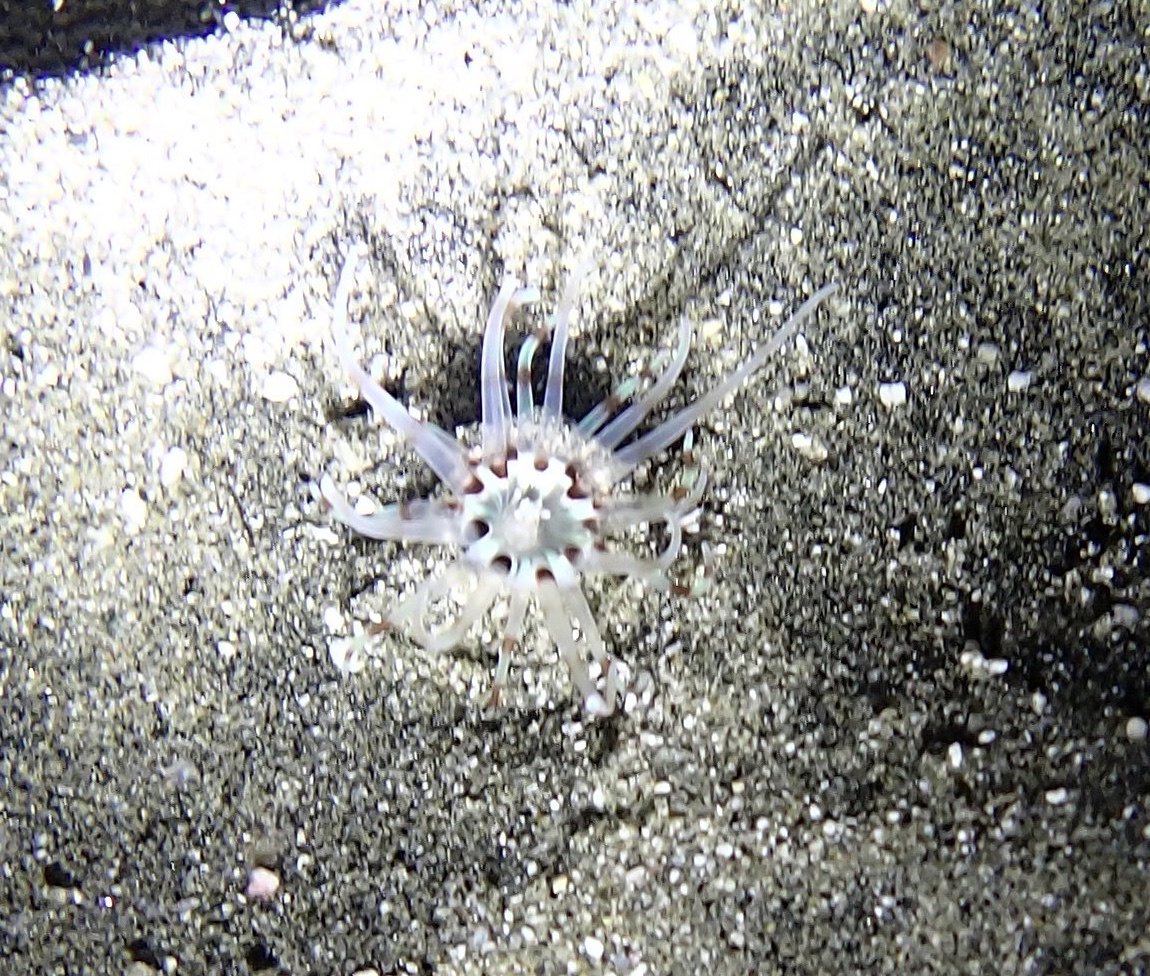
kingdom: Animalia
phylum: Cnidaria
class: Anthozoa
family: Arachnactidae
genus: Arachnanthus
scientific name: Arachnanthus lilith
